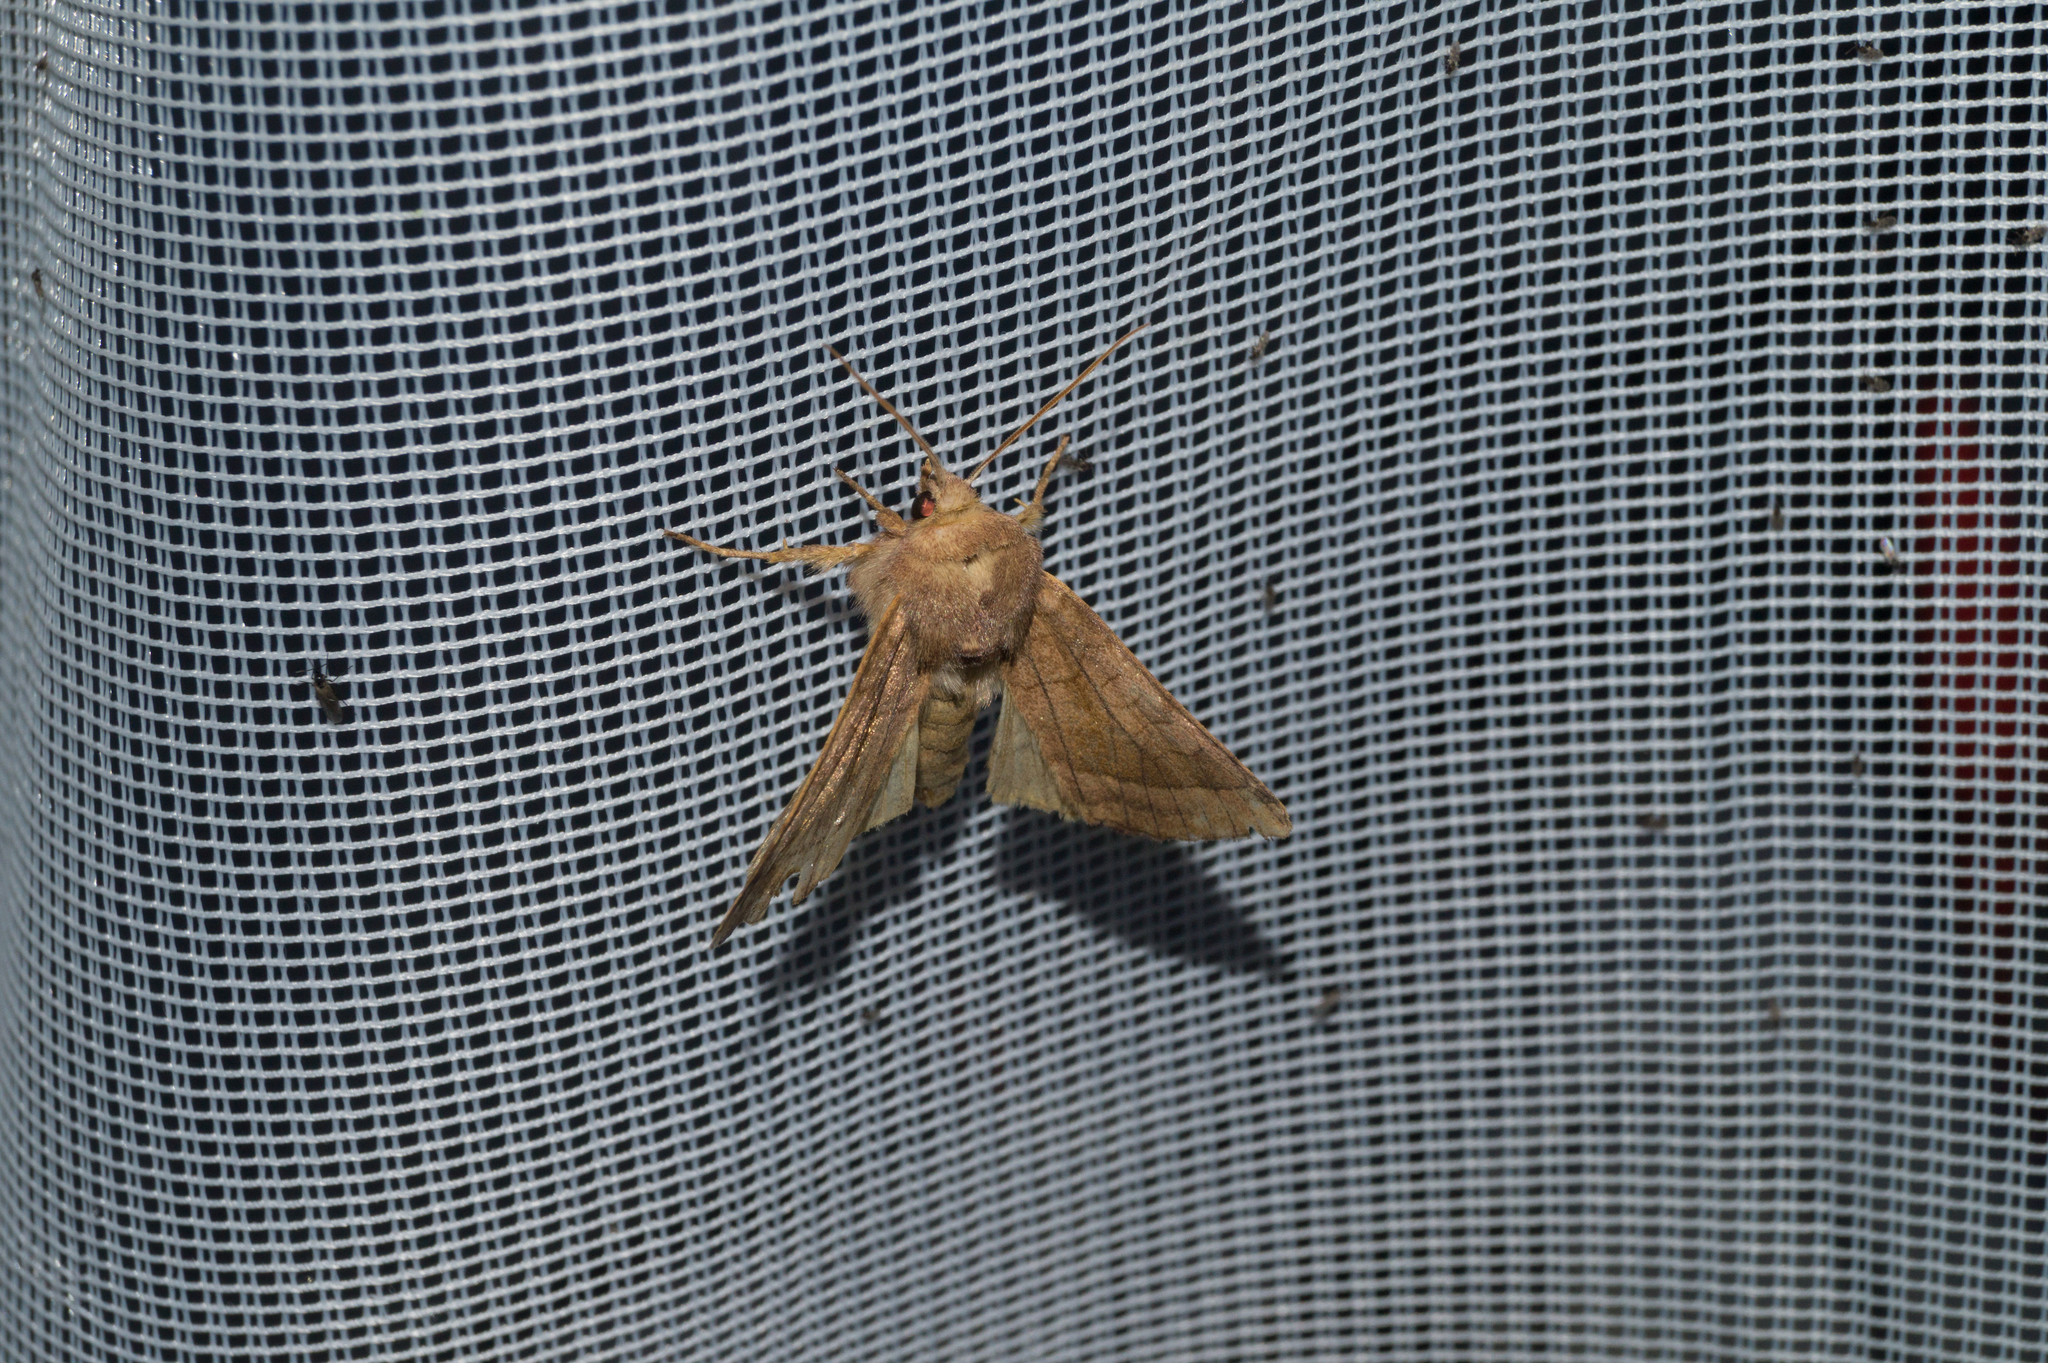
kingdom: Animalia
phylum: Arthropoda
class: Insecta
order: Lepidoptera
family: Noctuidae
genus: Hydraecia
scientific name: Hydraecia micacea
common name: Rosy rustic
